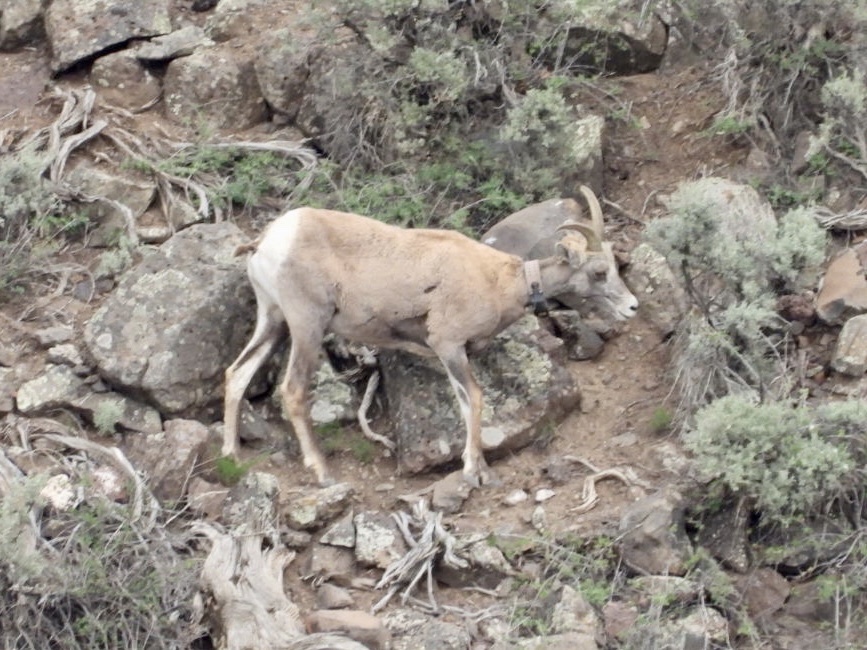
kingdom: Animalia
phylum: Chordata
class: Mammalia
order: Artiodactyla
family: Bovidae
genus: Ovis
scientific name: Ovis canadensis
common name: Bighorn sheep
